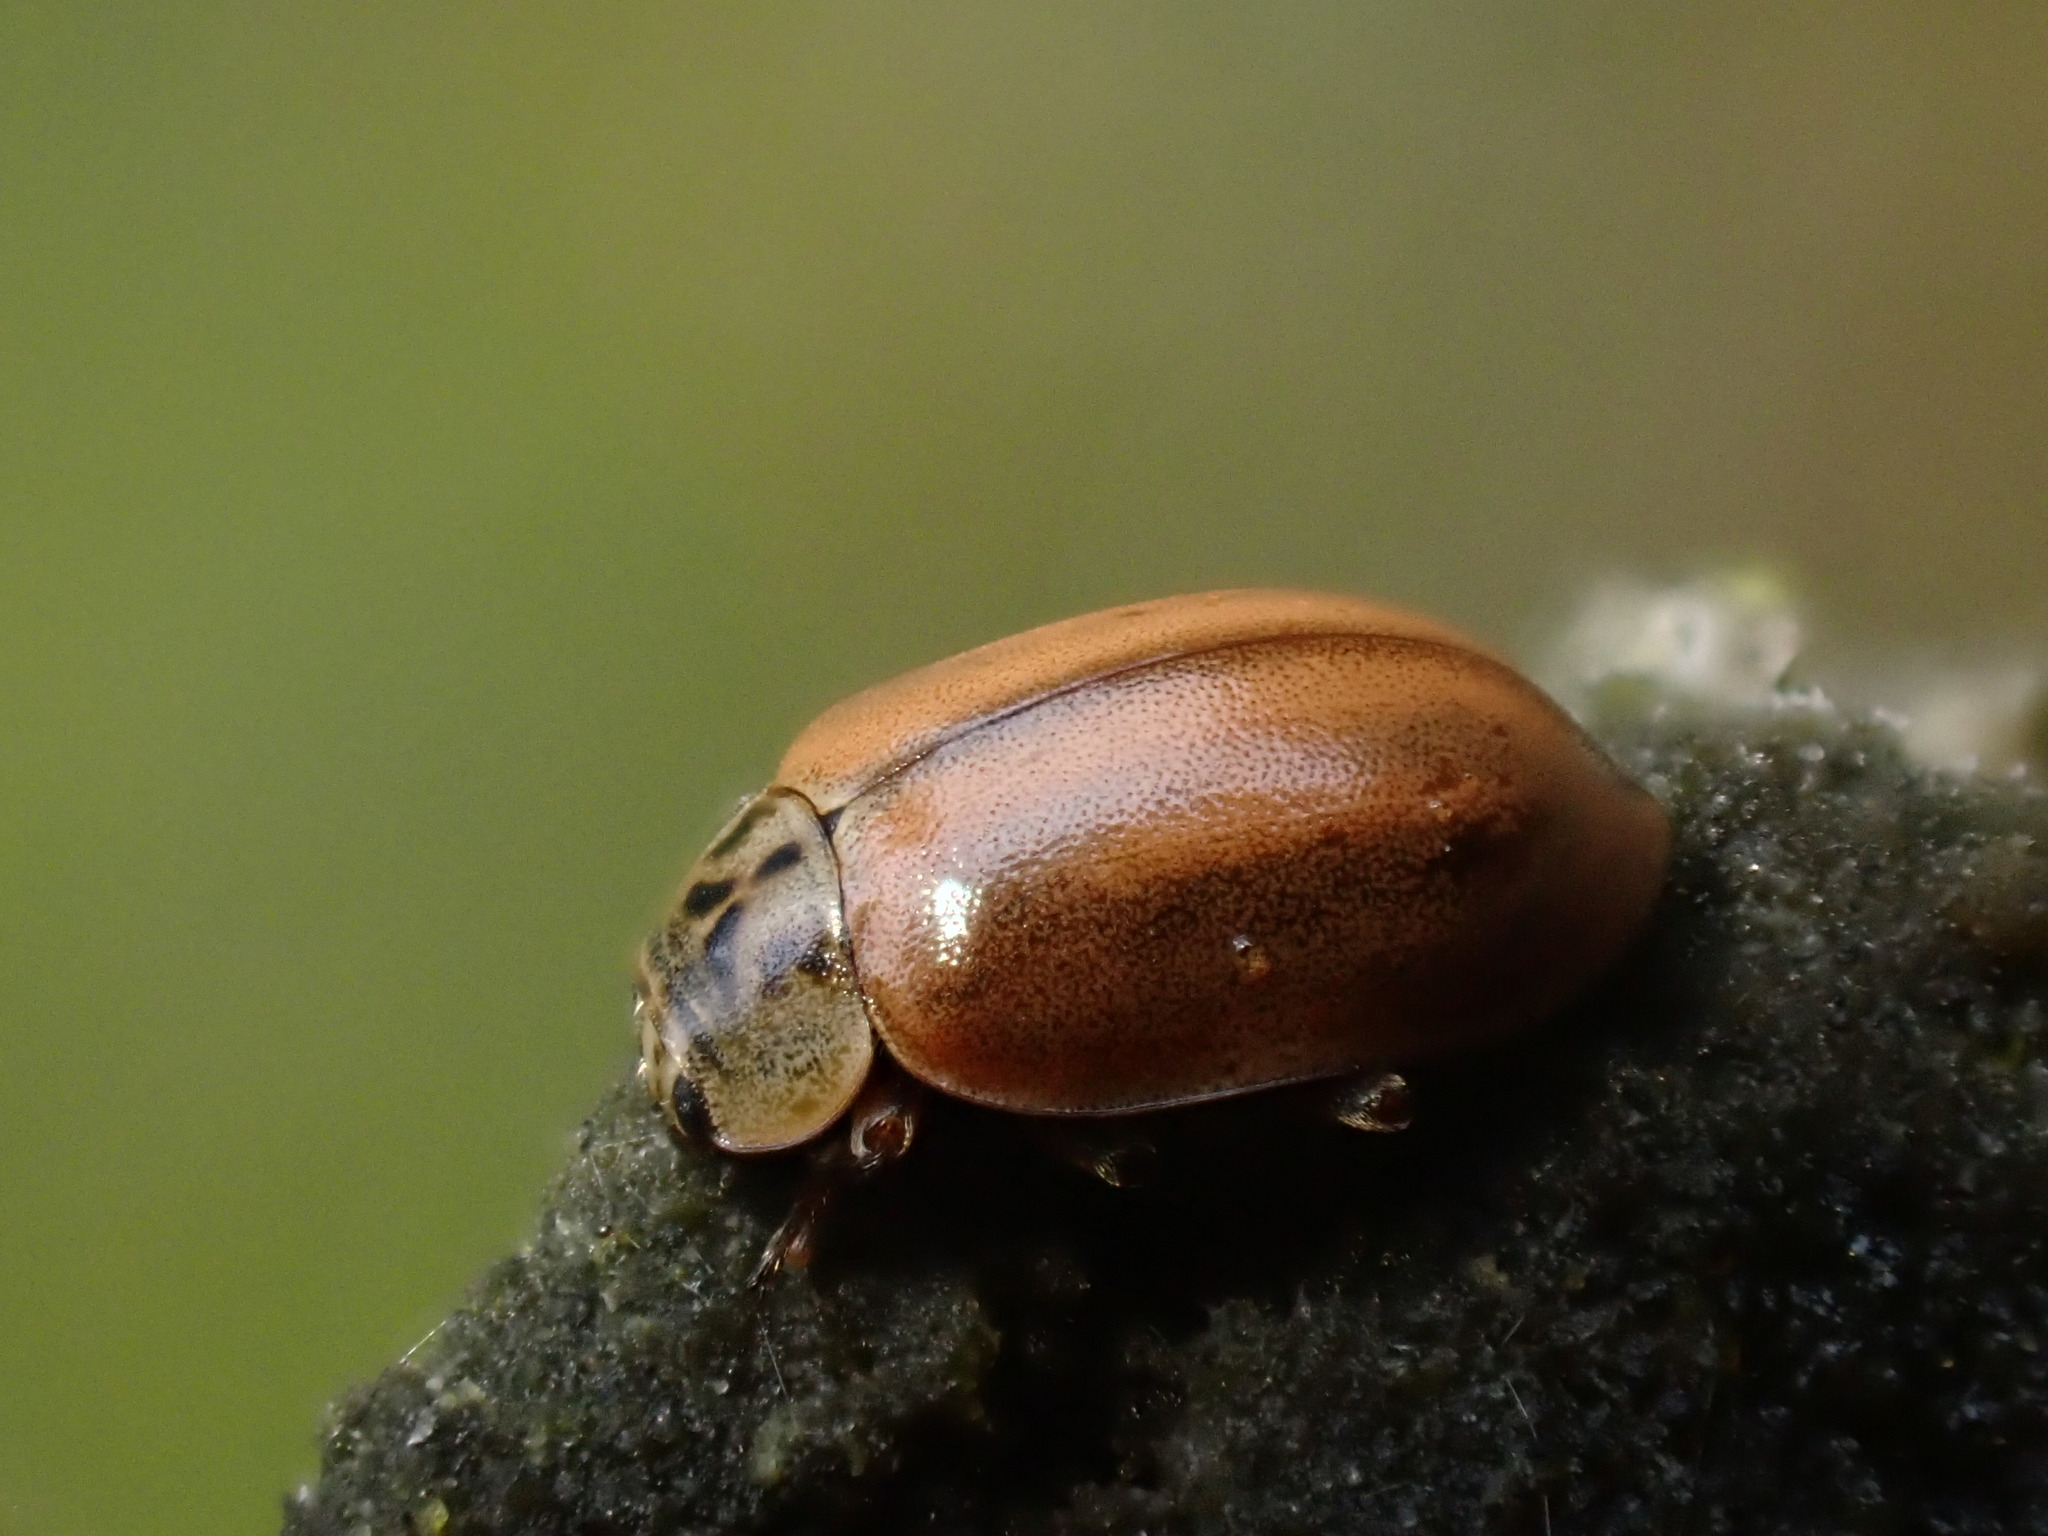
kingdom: Animalia
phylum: Arthropoda
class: Insecta
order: Coleoptera
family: Coccinellidae
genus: Aphidecta
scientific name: Aphidecta obliterata
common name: Larch ladybird
